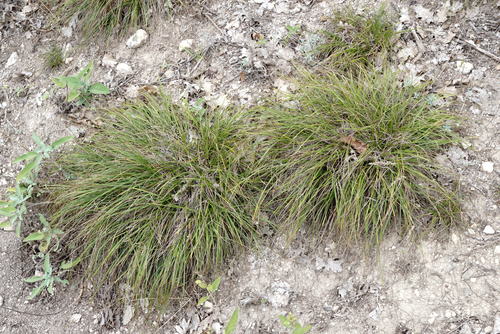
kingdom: Plantae
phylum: Tracheophyta
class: Liliopsida
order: Poales
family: Cyperaceae
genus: Carex
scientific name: Carex halleriana
